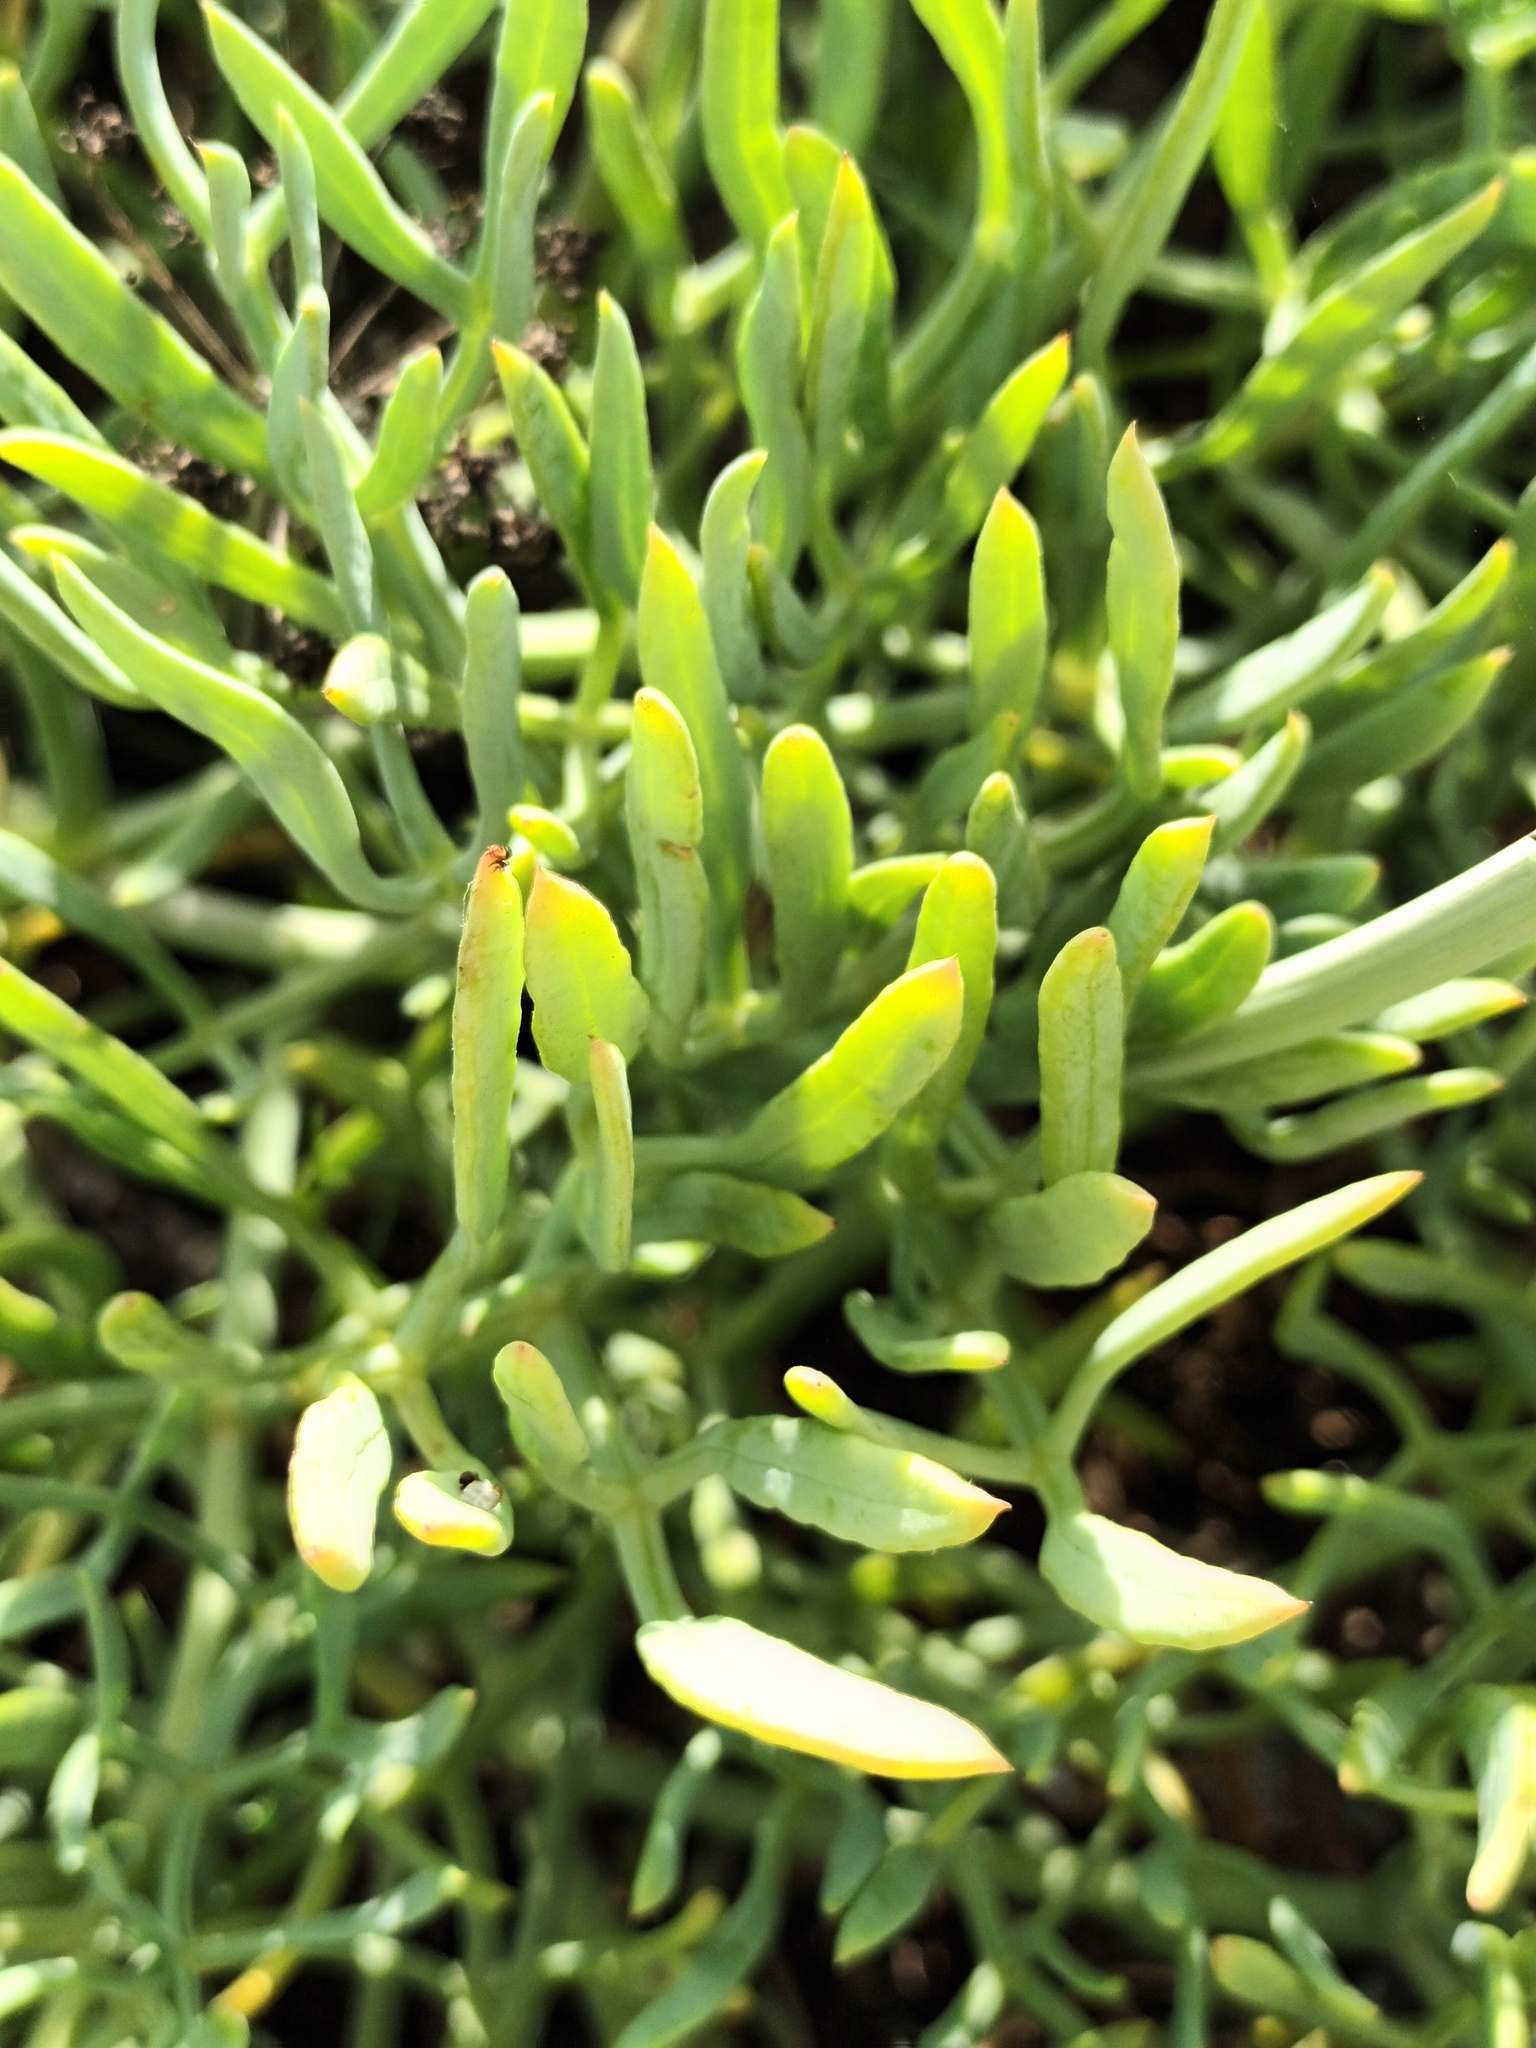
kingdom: Plantae
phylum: Tracheophyta
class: Magnoliopsida
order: Apiales
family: Apiaceae
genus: Crithmum
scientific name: Crithmum maritimum
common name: Rock samphire
